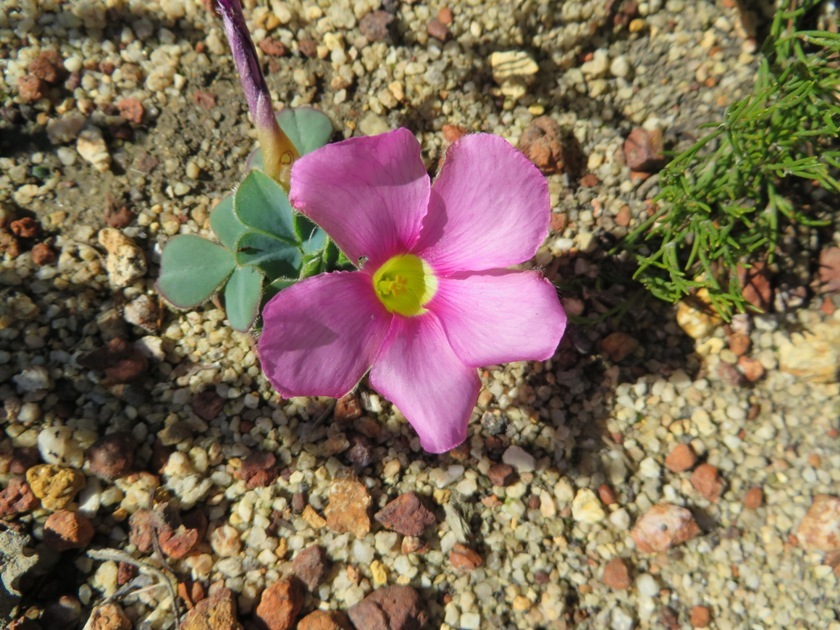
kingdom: Plantae
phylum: Tracheophyta
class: Magnoliopsida
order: Oxalidales
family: Oxalidaceae
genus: Oxalis
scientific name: Oxalis purpurea
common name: Purple woodsorrel
